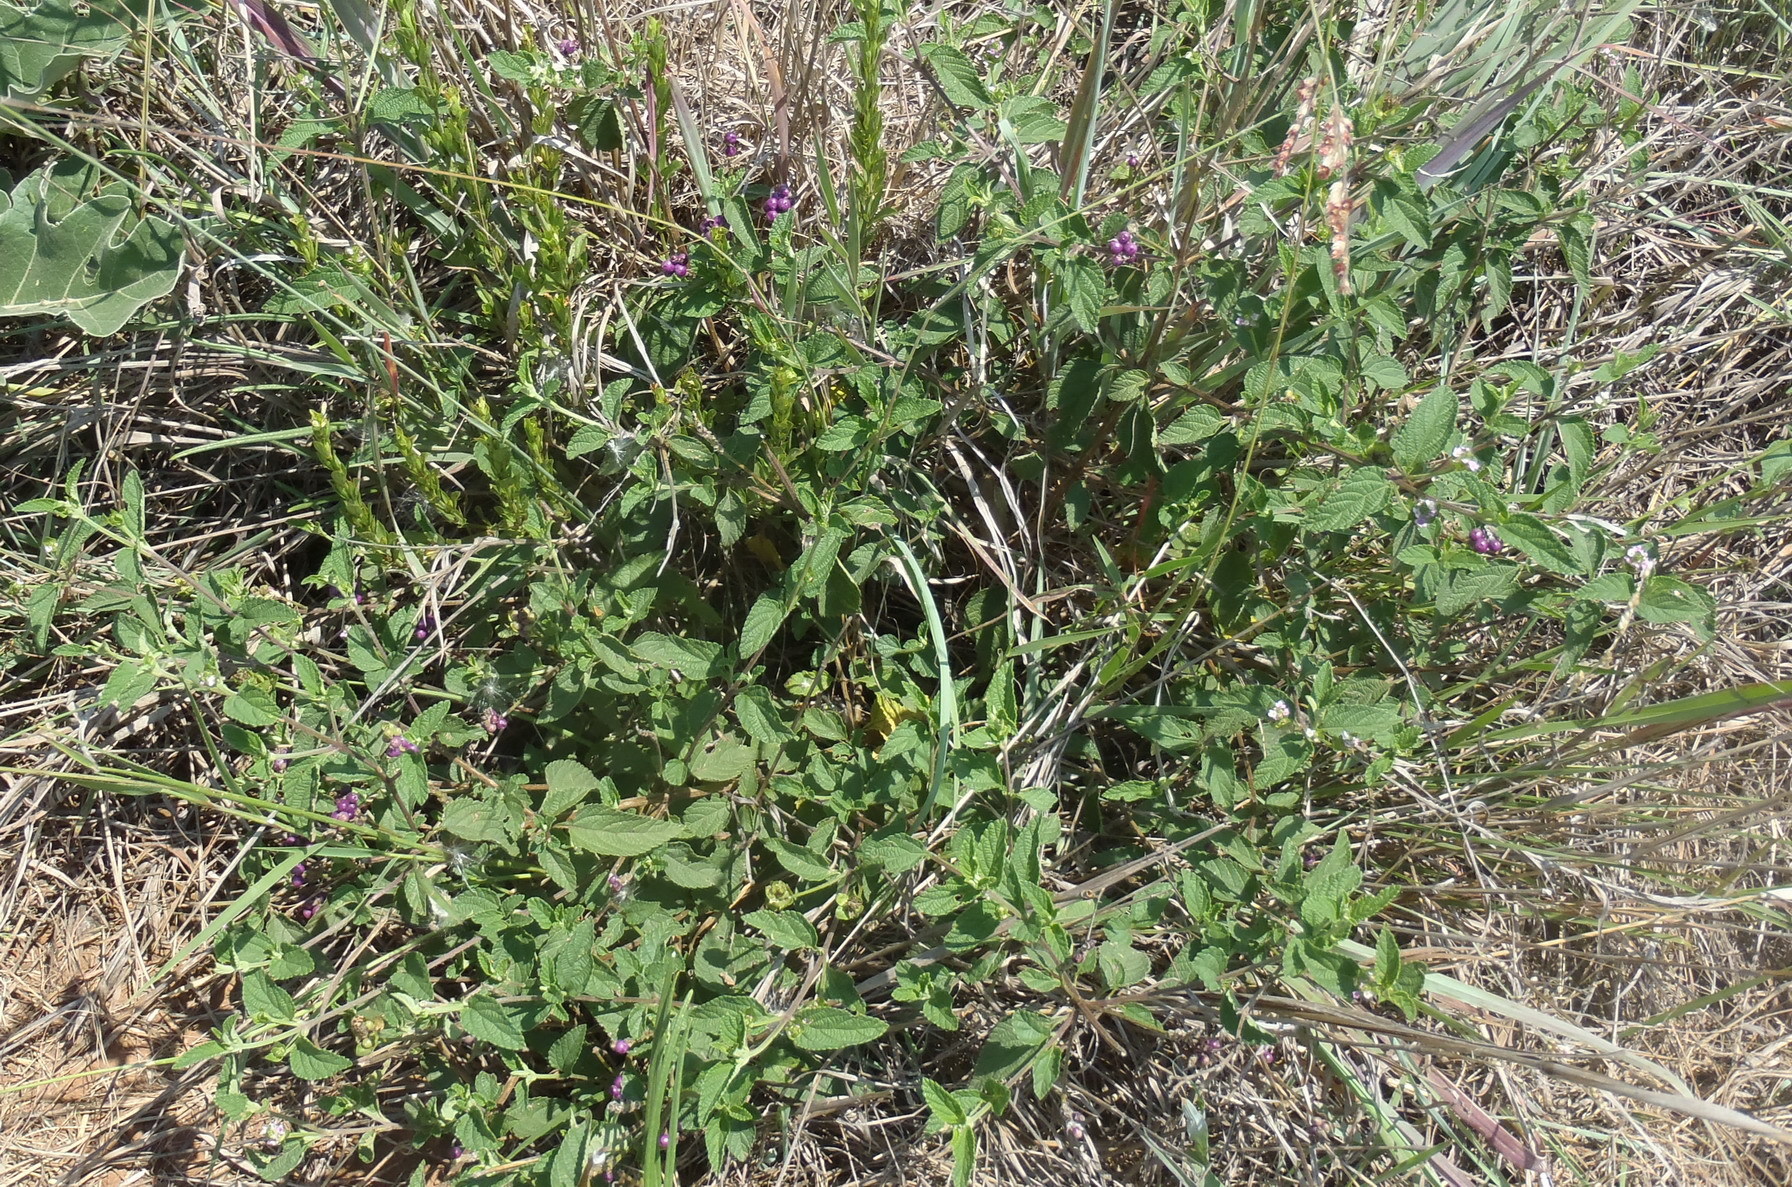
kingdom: Plantae
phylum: Tracheophyta
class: Magnoliopsida
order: Lamiales
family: Verbenaceae
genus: Lantana
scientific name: Lantana rugosa
